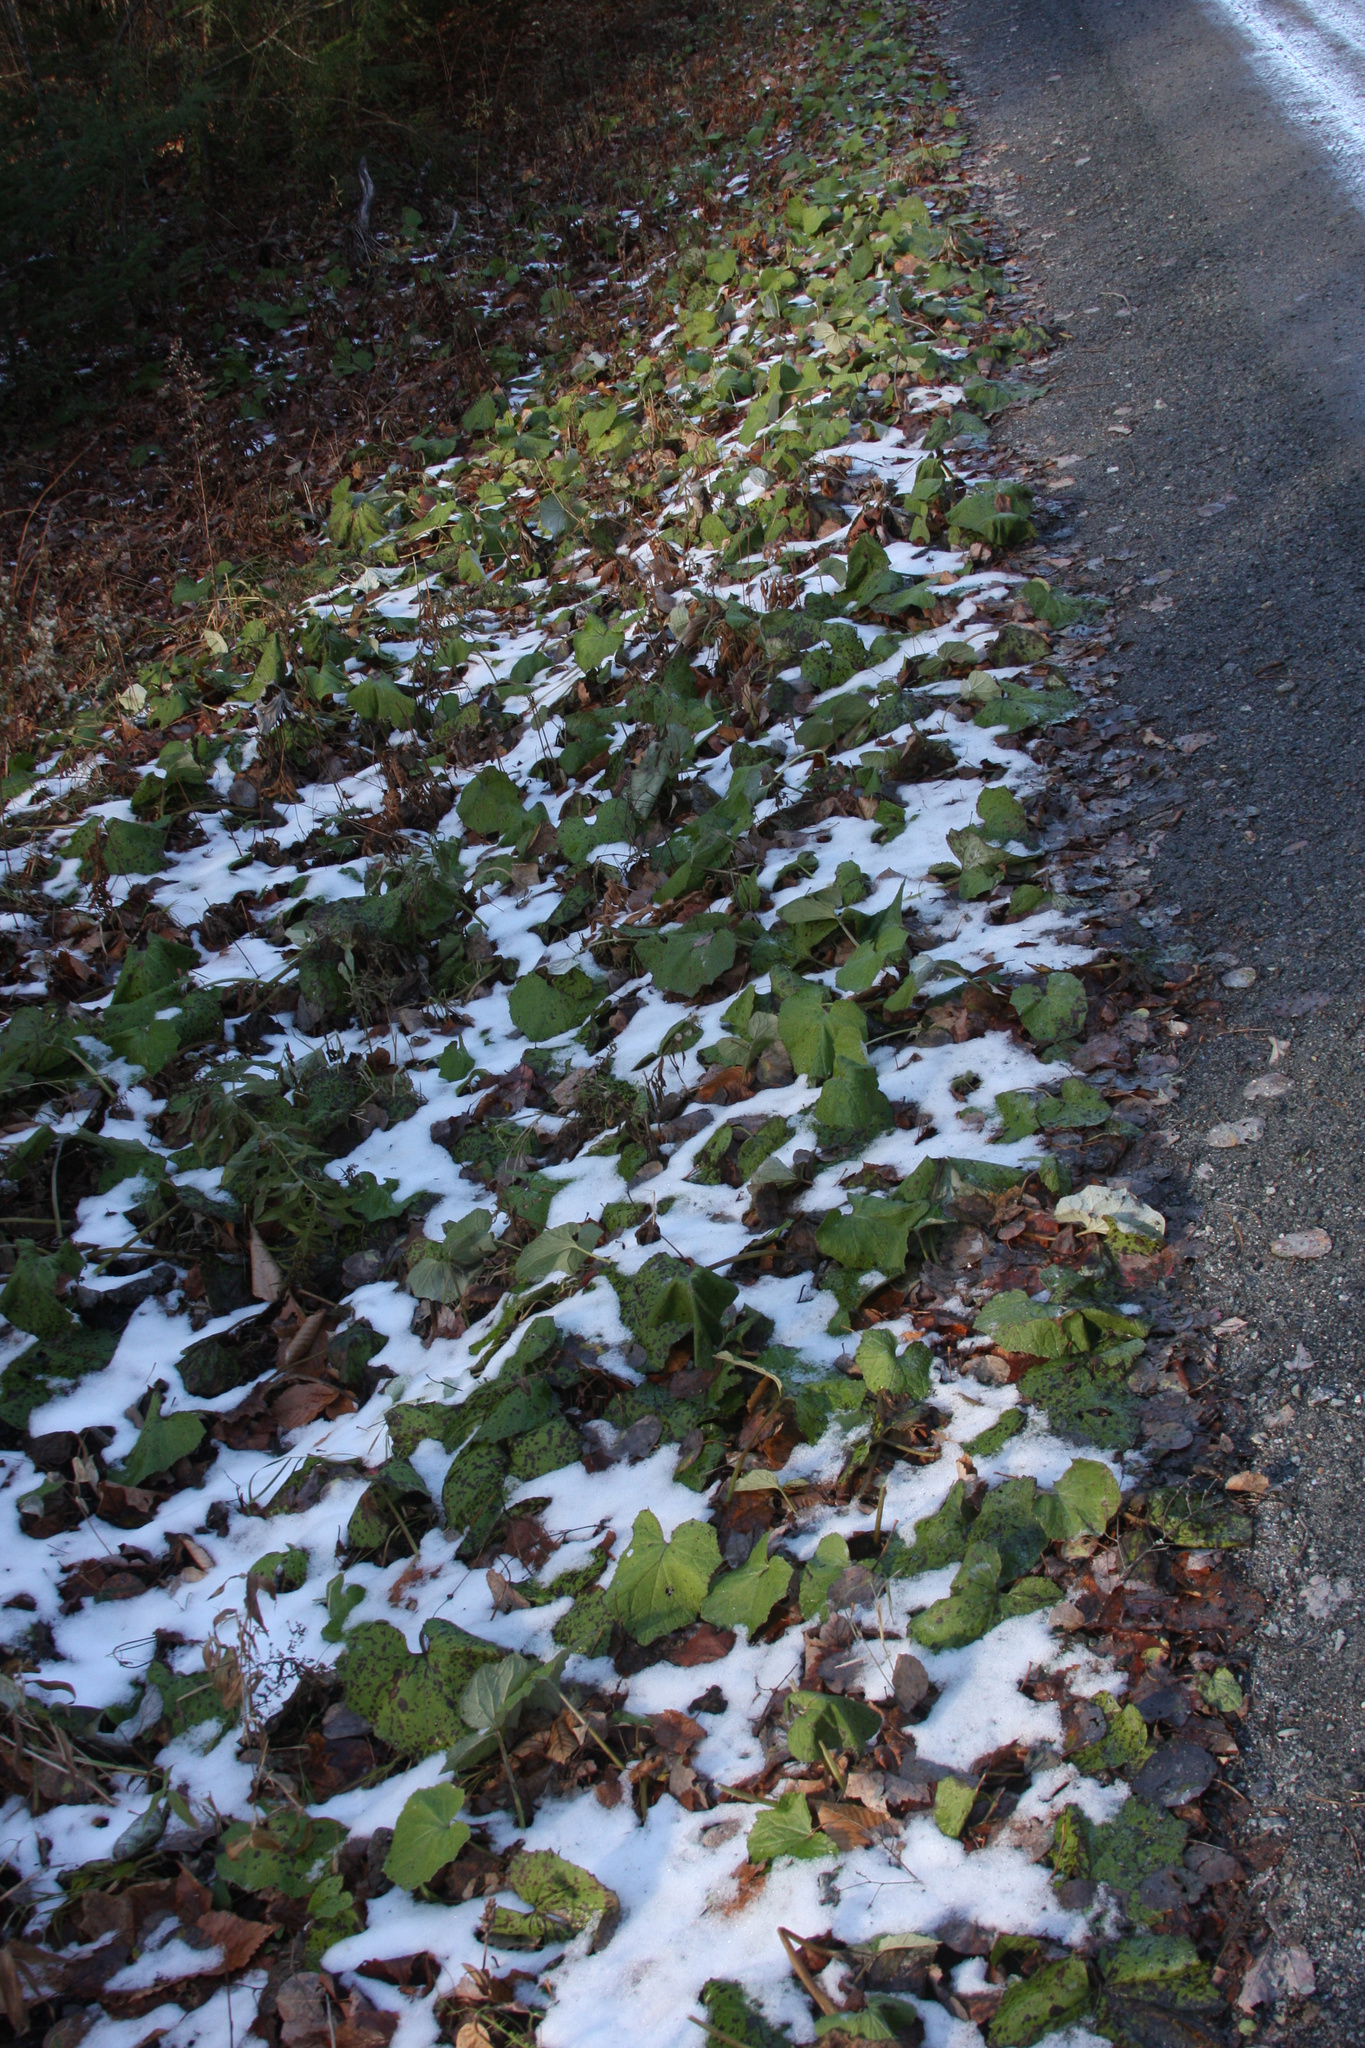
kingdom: Plantae
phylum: Tracheophyta
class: Magnoliopsida
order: Asterales
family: Asteraceae
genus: Tussilago
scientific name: Tussilago farfara
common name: Coltsfoot
